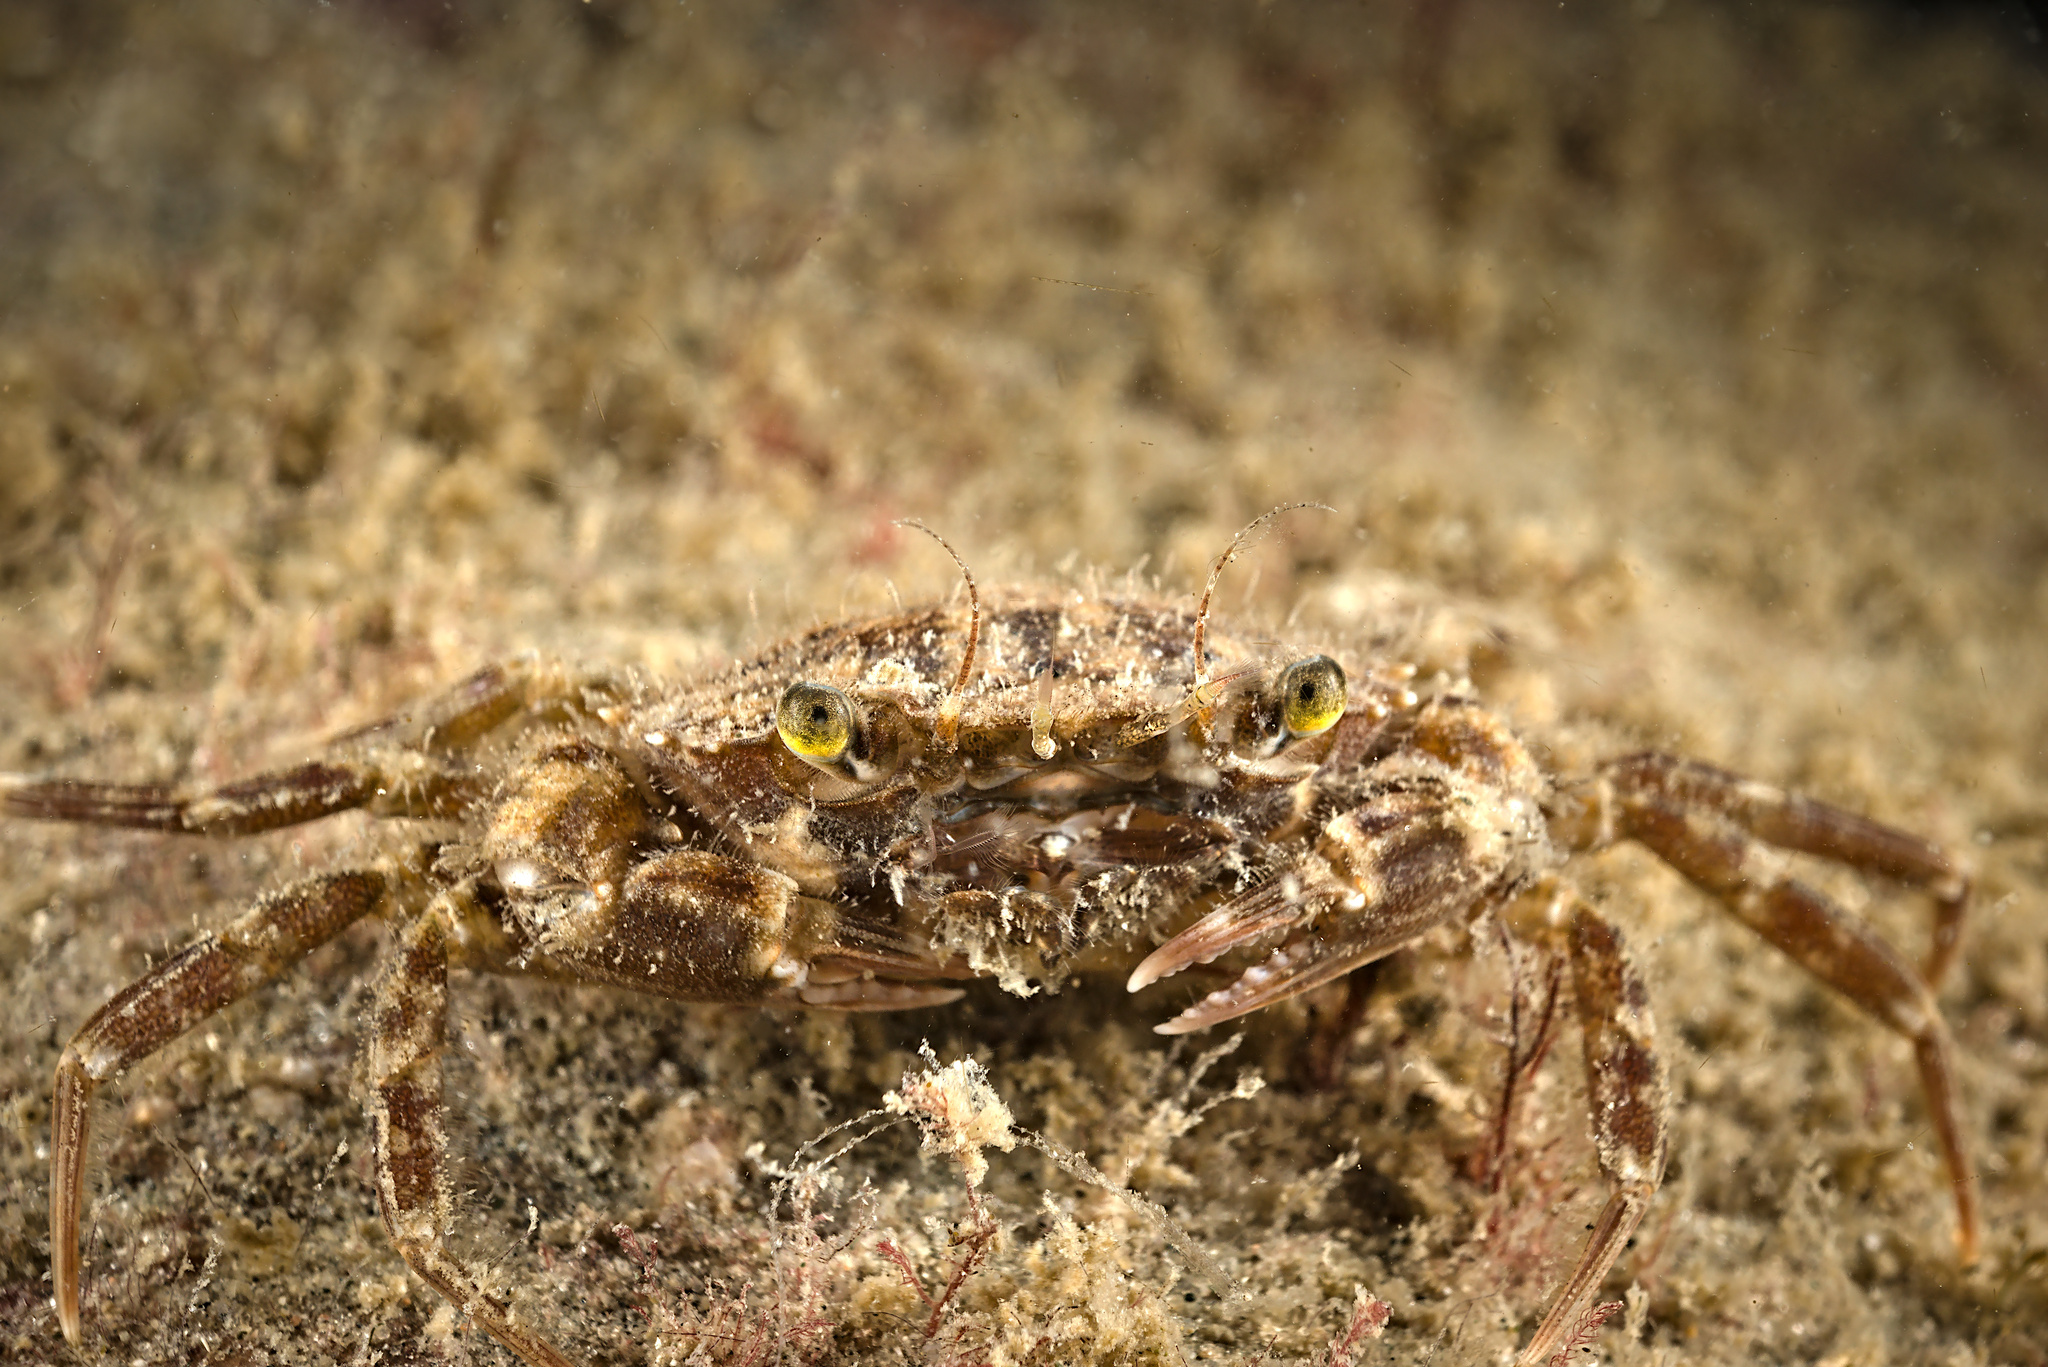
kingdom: Animalia
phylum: Arthropoda
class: Malacostraca
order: Decapoda
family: Polybiidae
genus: Liocarcinus
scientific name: Liocarcinus navigator
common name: Arch-fronted swimming crab
